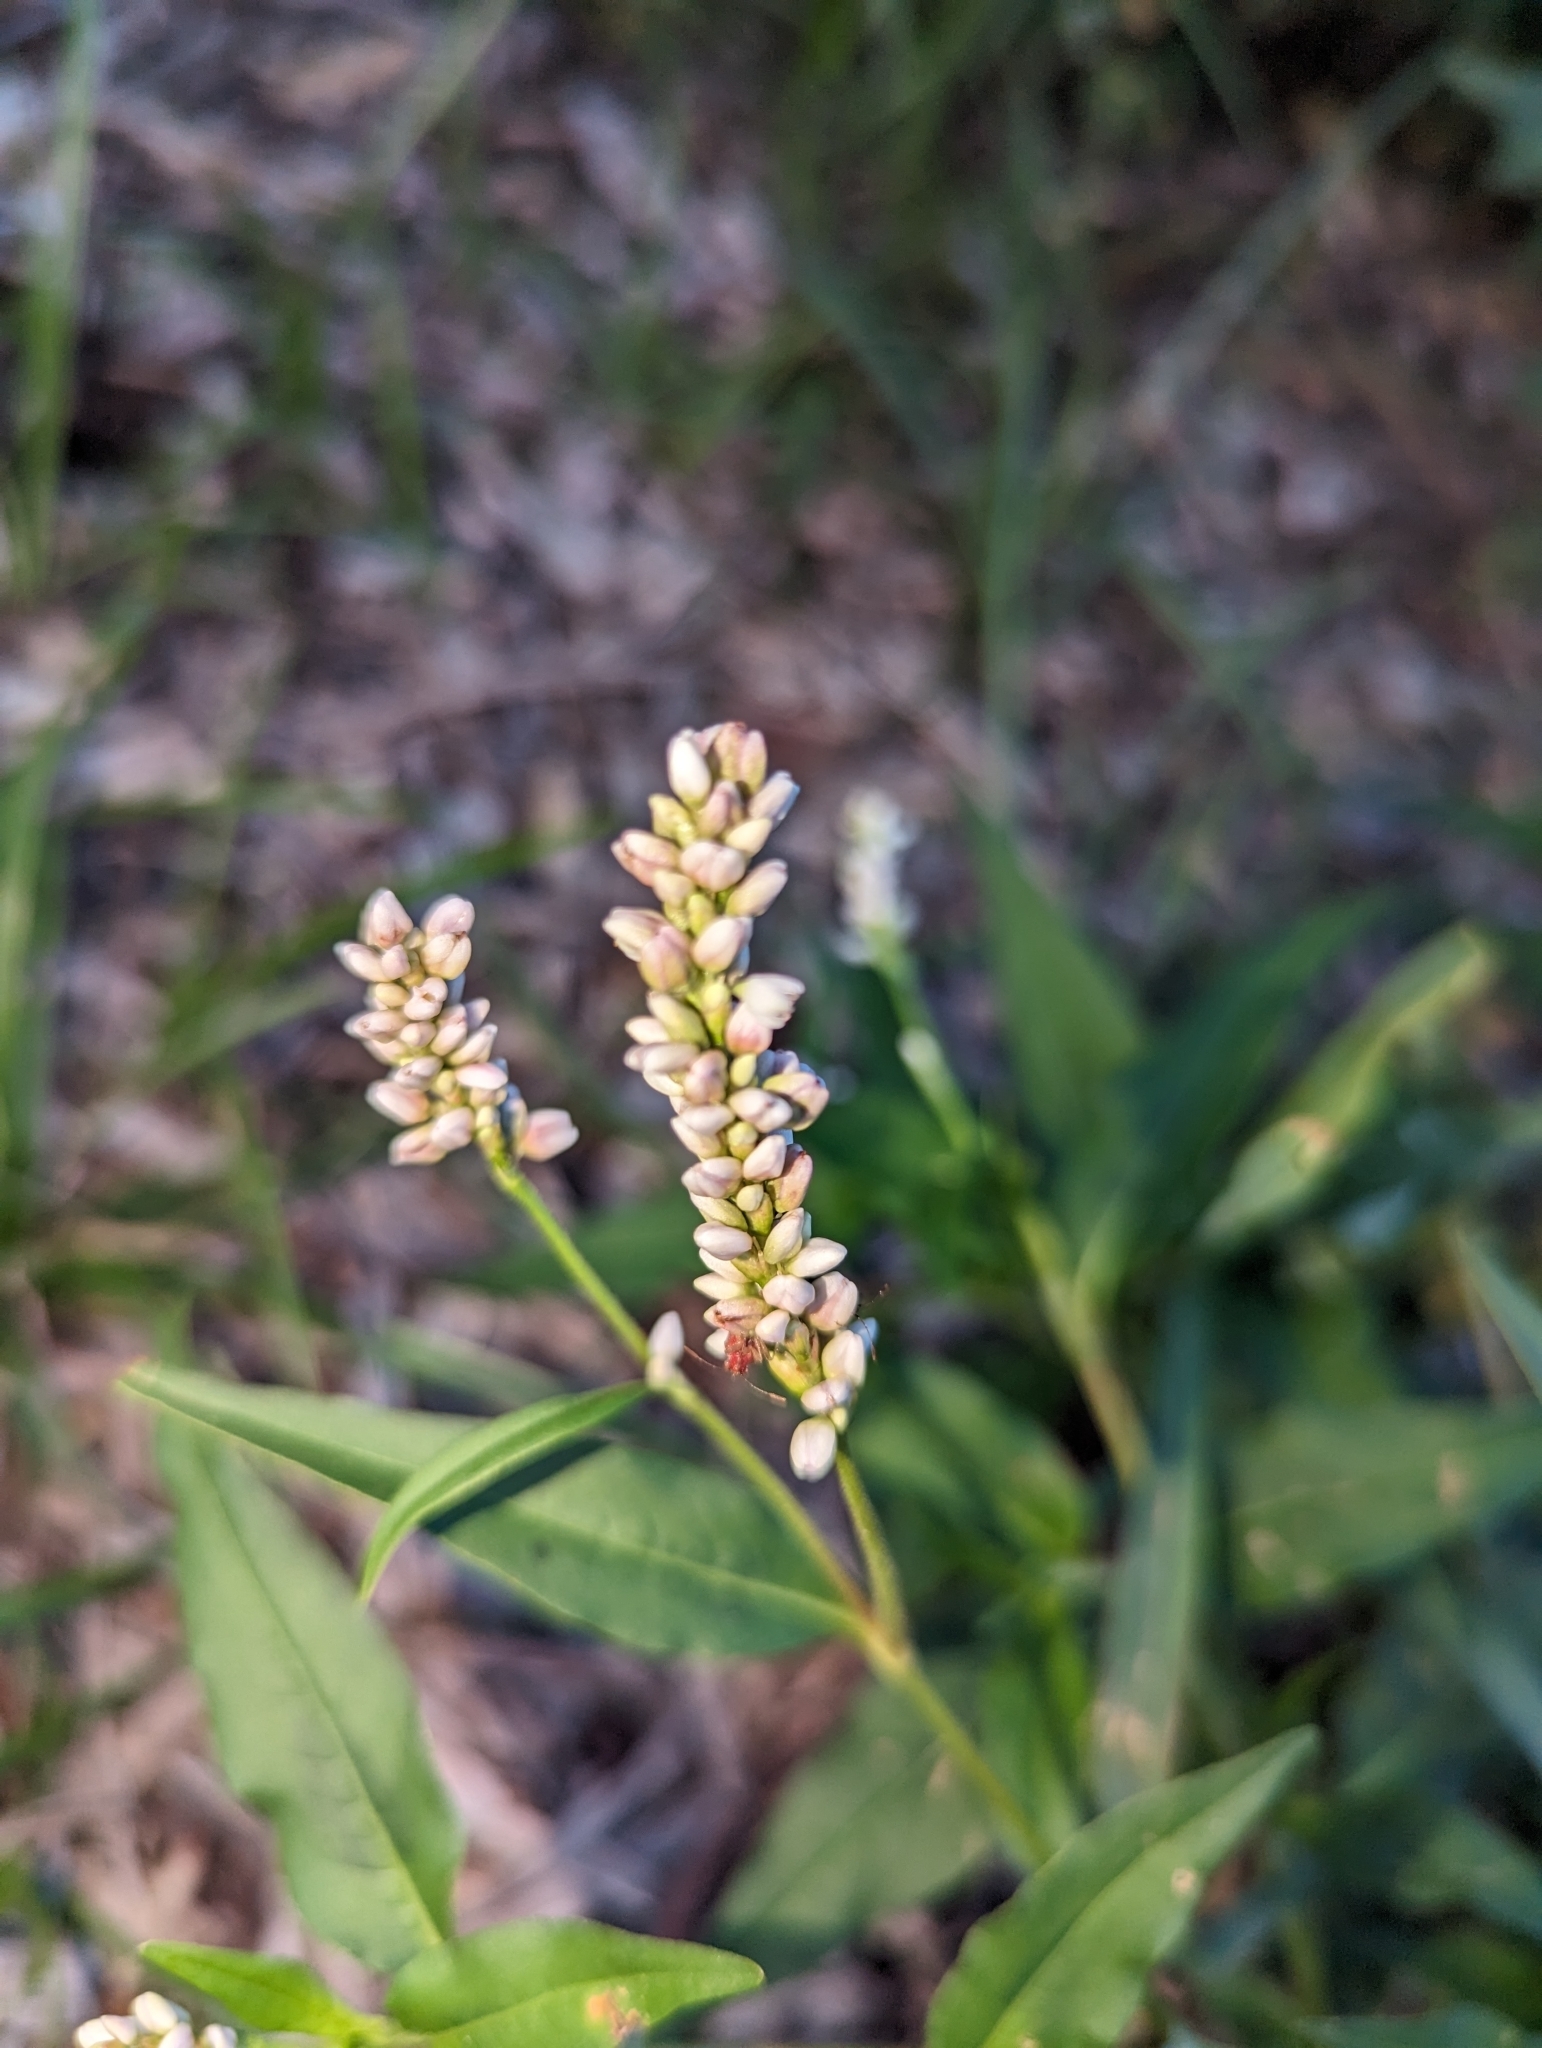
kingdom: Plantae
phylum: Tracheophyta
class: Magnoliopsida
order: Caryophyllales
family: Polygonaceae
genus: Persicaria
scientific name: Persicaria pensylvanica
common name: Pinkweed
